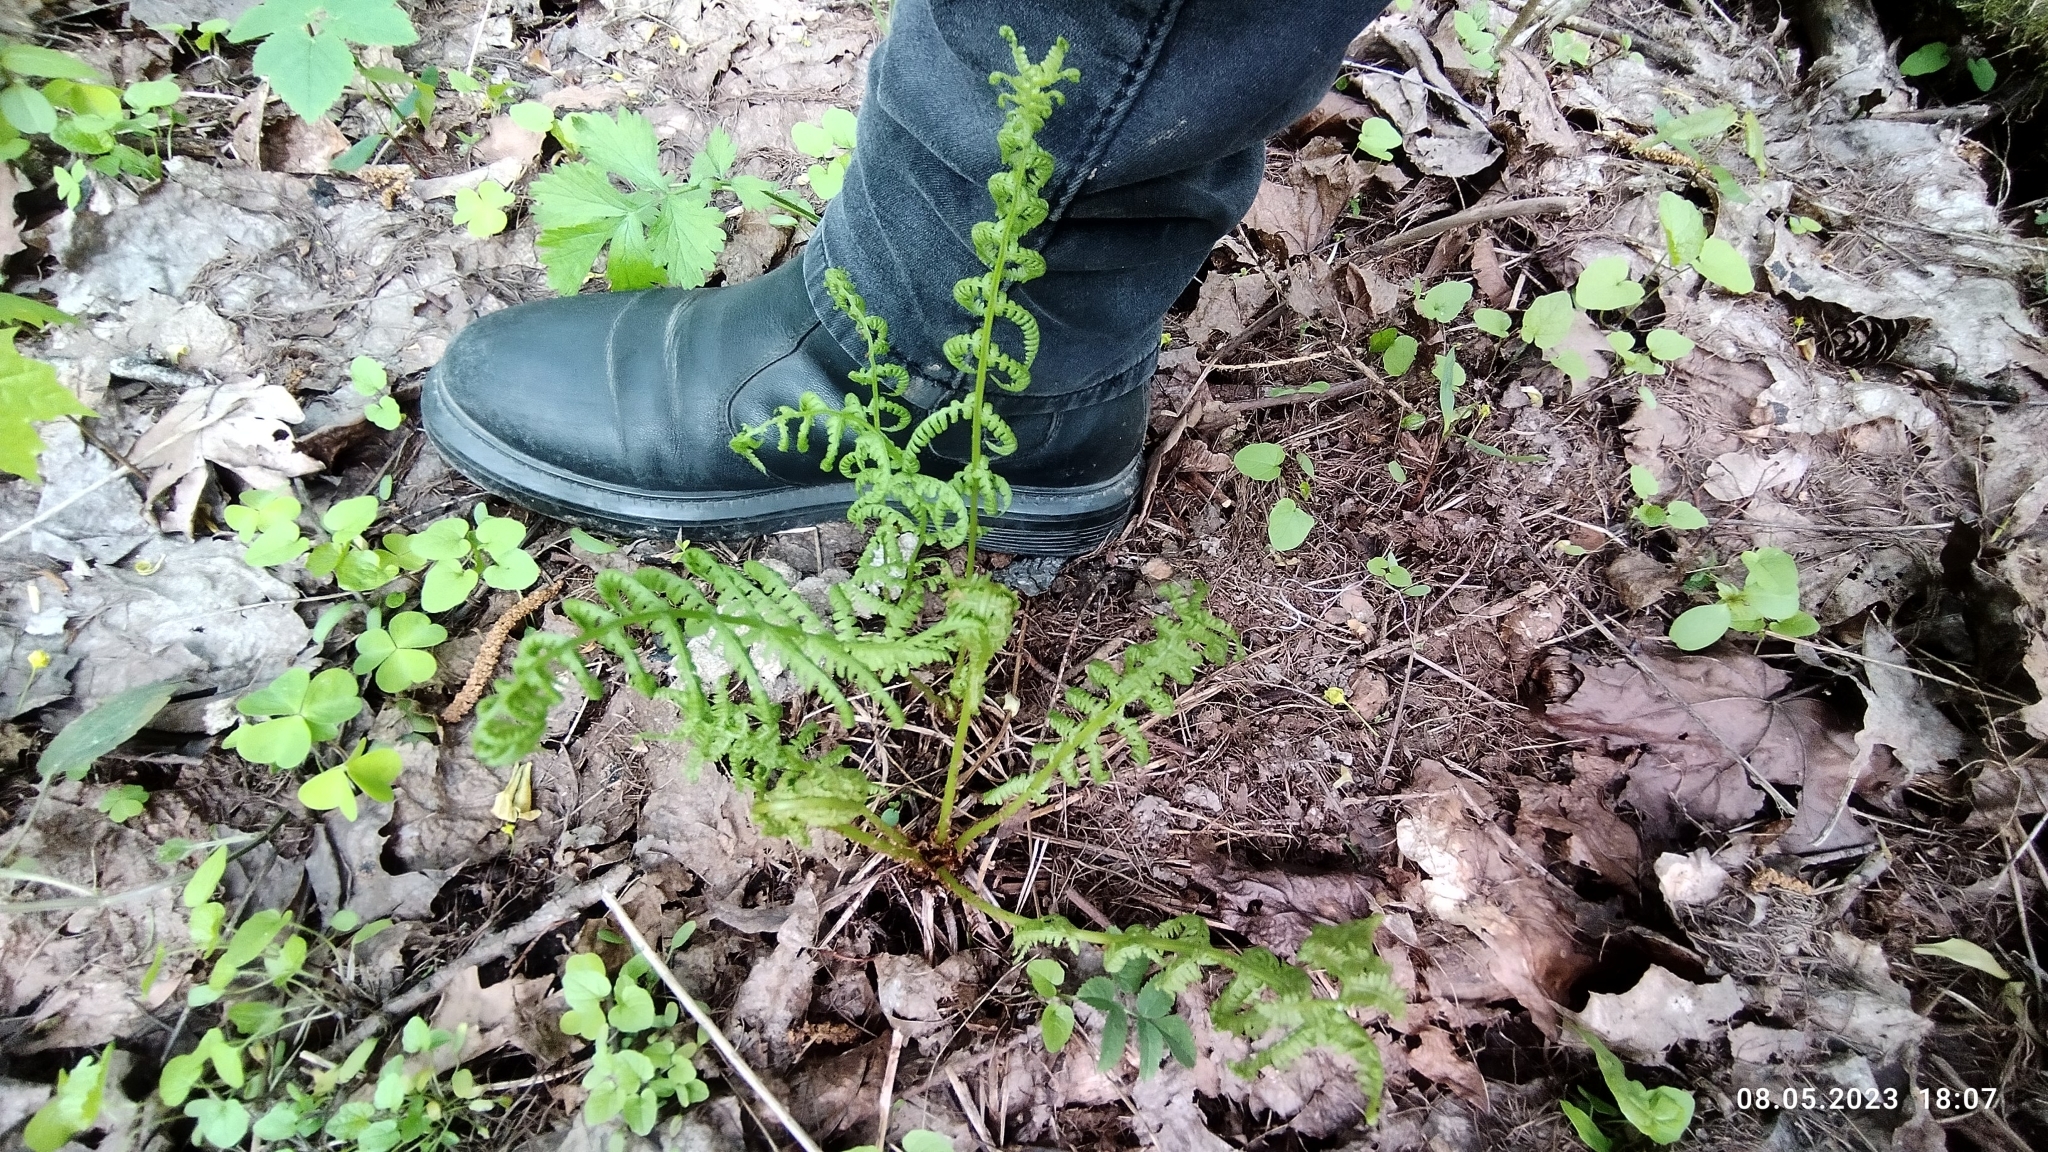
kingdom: Plantae
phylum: Tracheophyta
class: Polypodiopsida
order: Polypodiales
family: Athyriaceae
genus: Athyrium
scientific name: Athyrium filix-femina
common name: Lady fern
